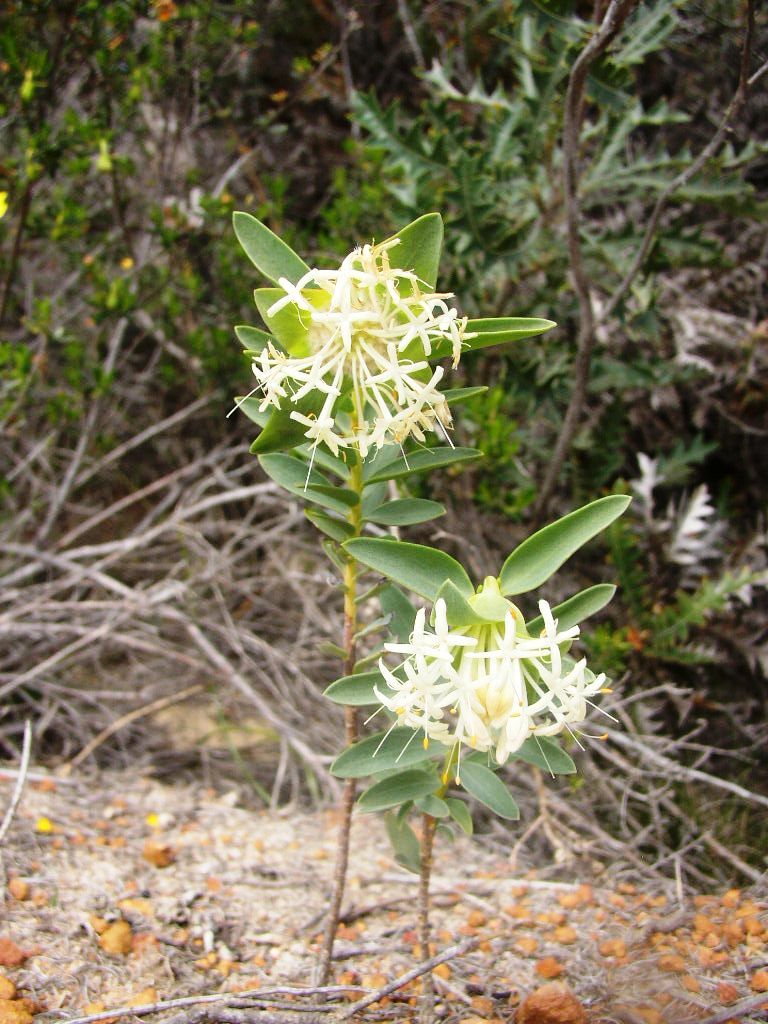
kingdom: Plantae
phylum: Tracheophyta
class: Magnoliopsida
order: Malvales
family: Thymelaeaceae
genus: Pimelea
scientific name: Pimelea floribunda
